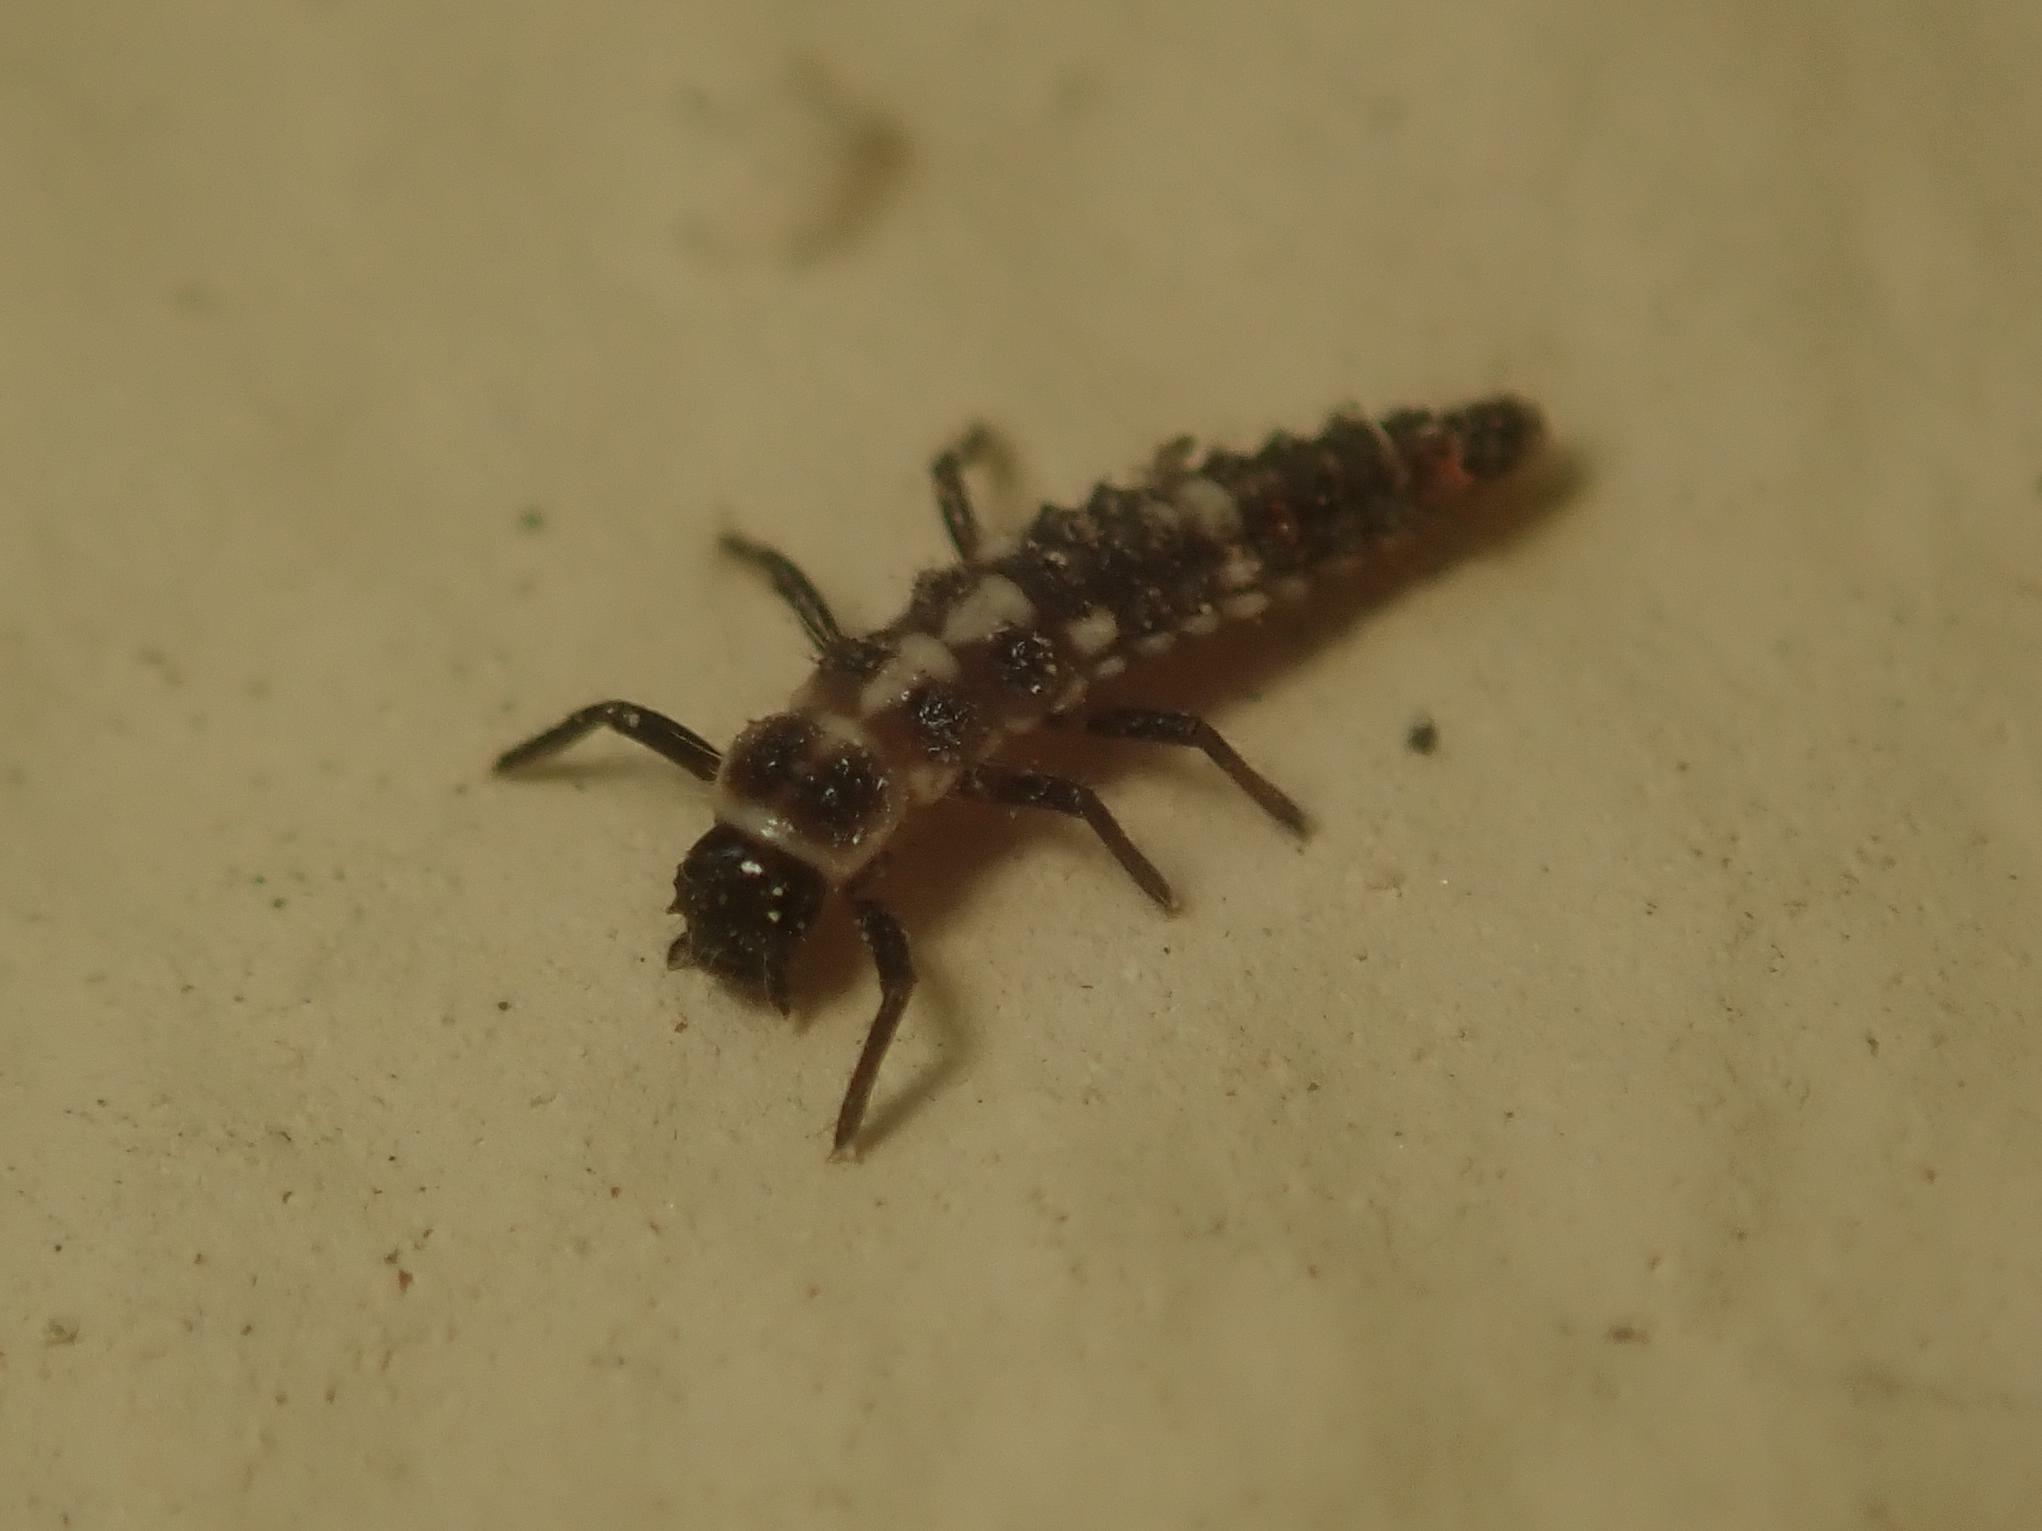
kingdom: Animalia
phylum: Arthropoda
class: Insecta
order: Coleoptera
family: Coccinellidae
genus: Oenopia
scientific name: Oenopia conglobata
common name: Ladybird beetle
